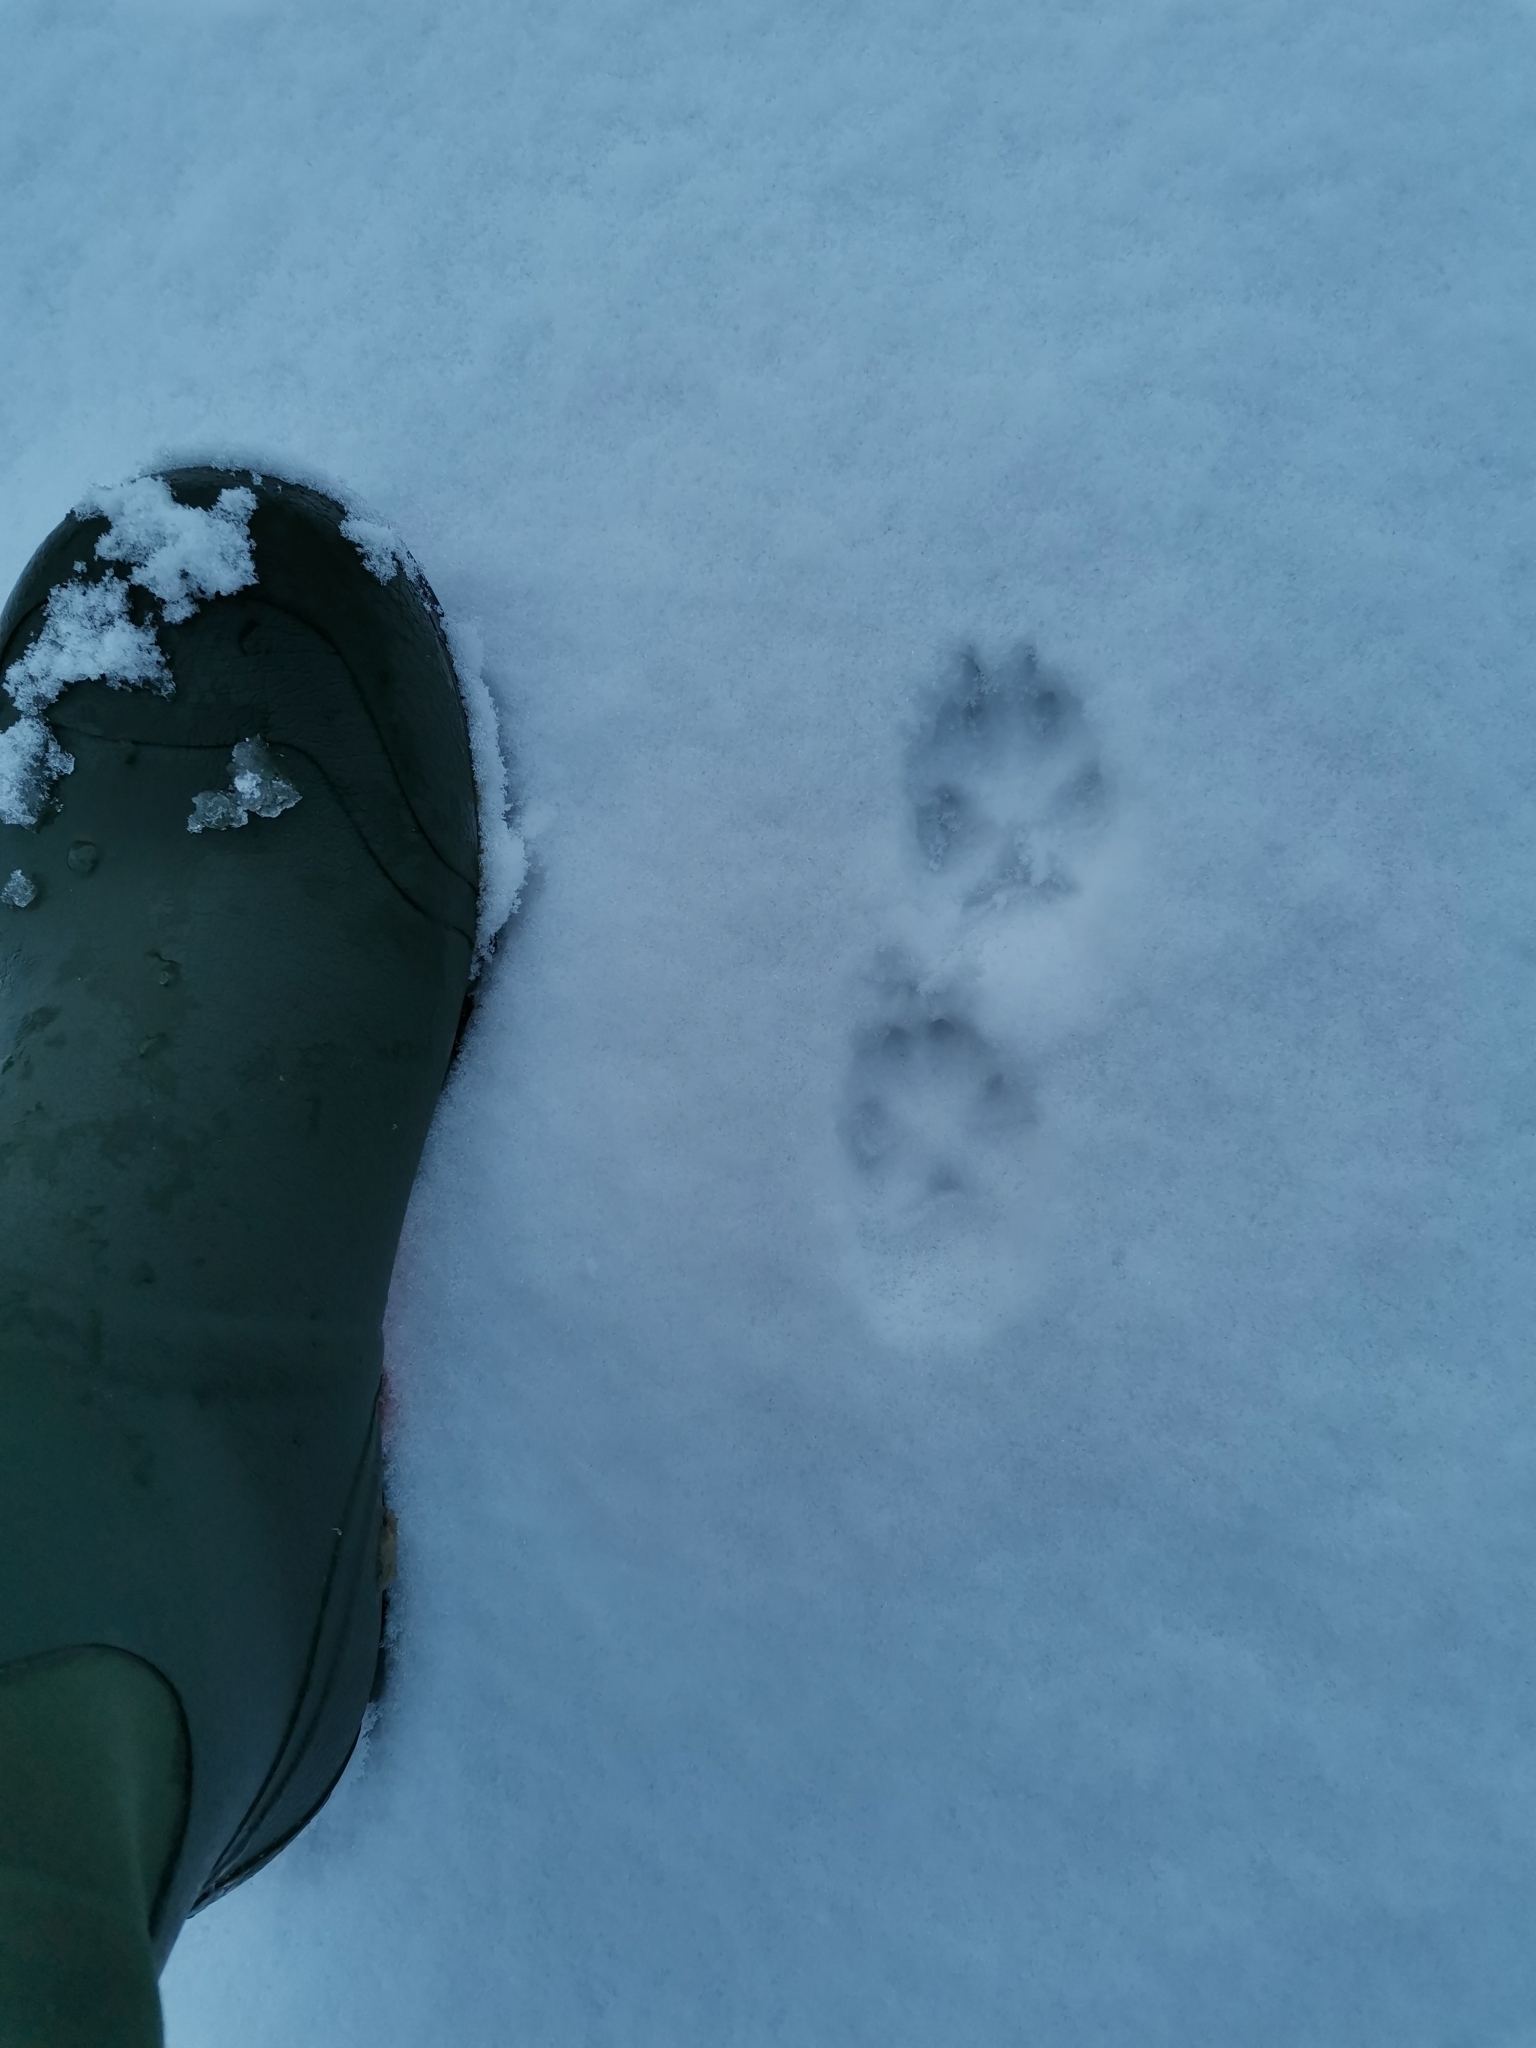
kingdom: Animalia
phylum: Chordata
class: Mammalia
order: Carnivora
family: Canidae
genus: Vulpes
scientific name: Vulpes vulpes
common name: Red fox
